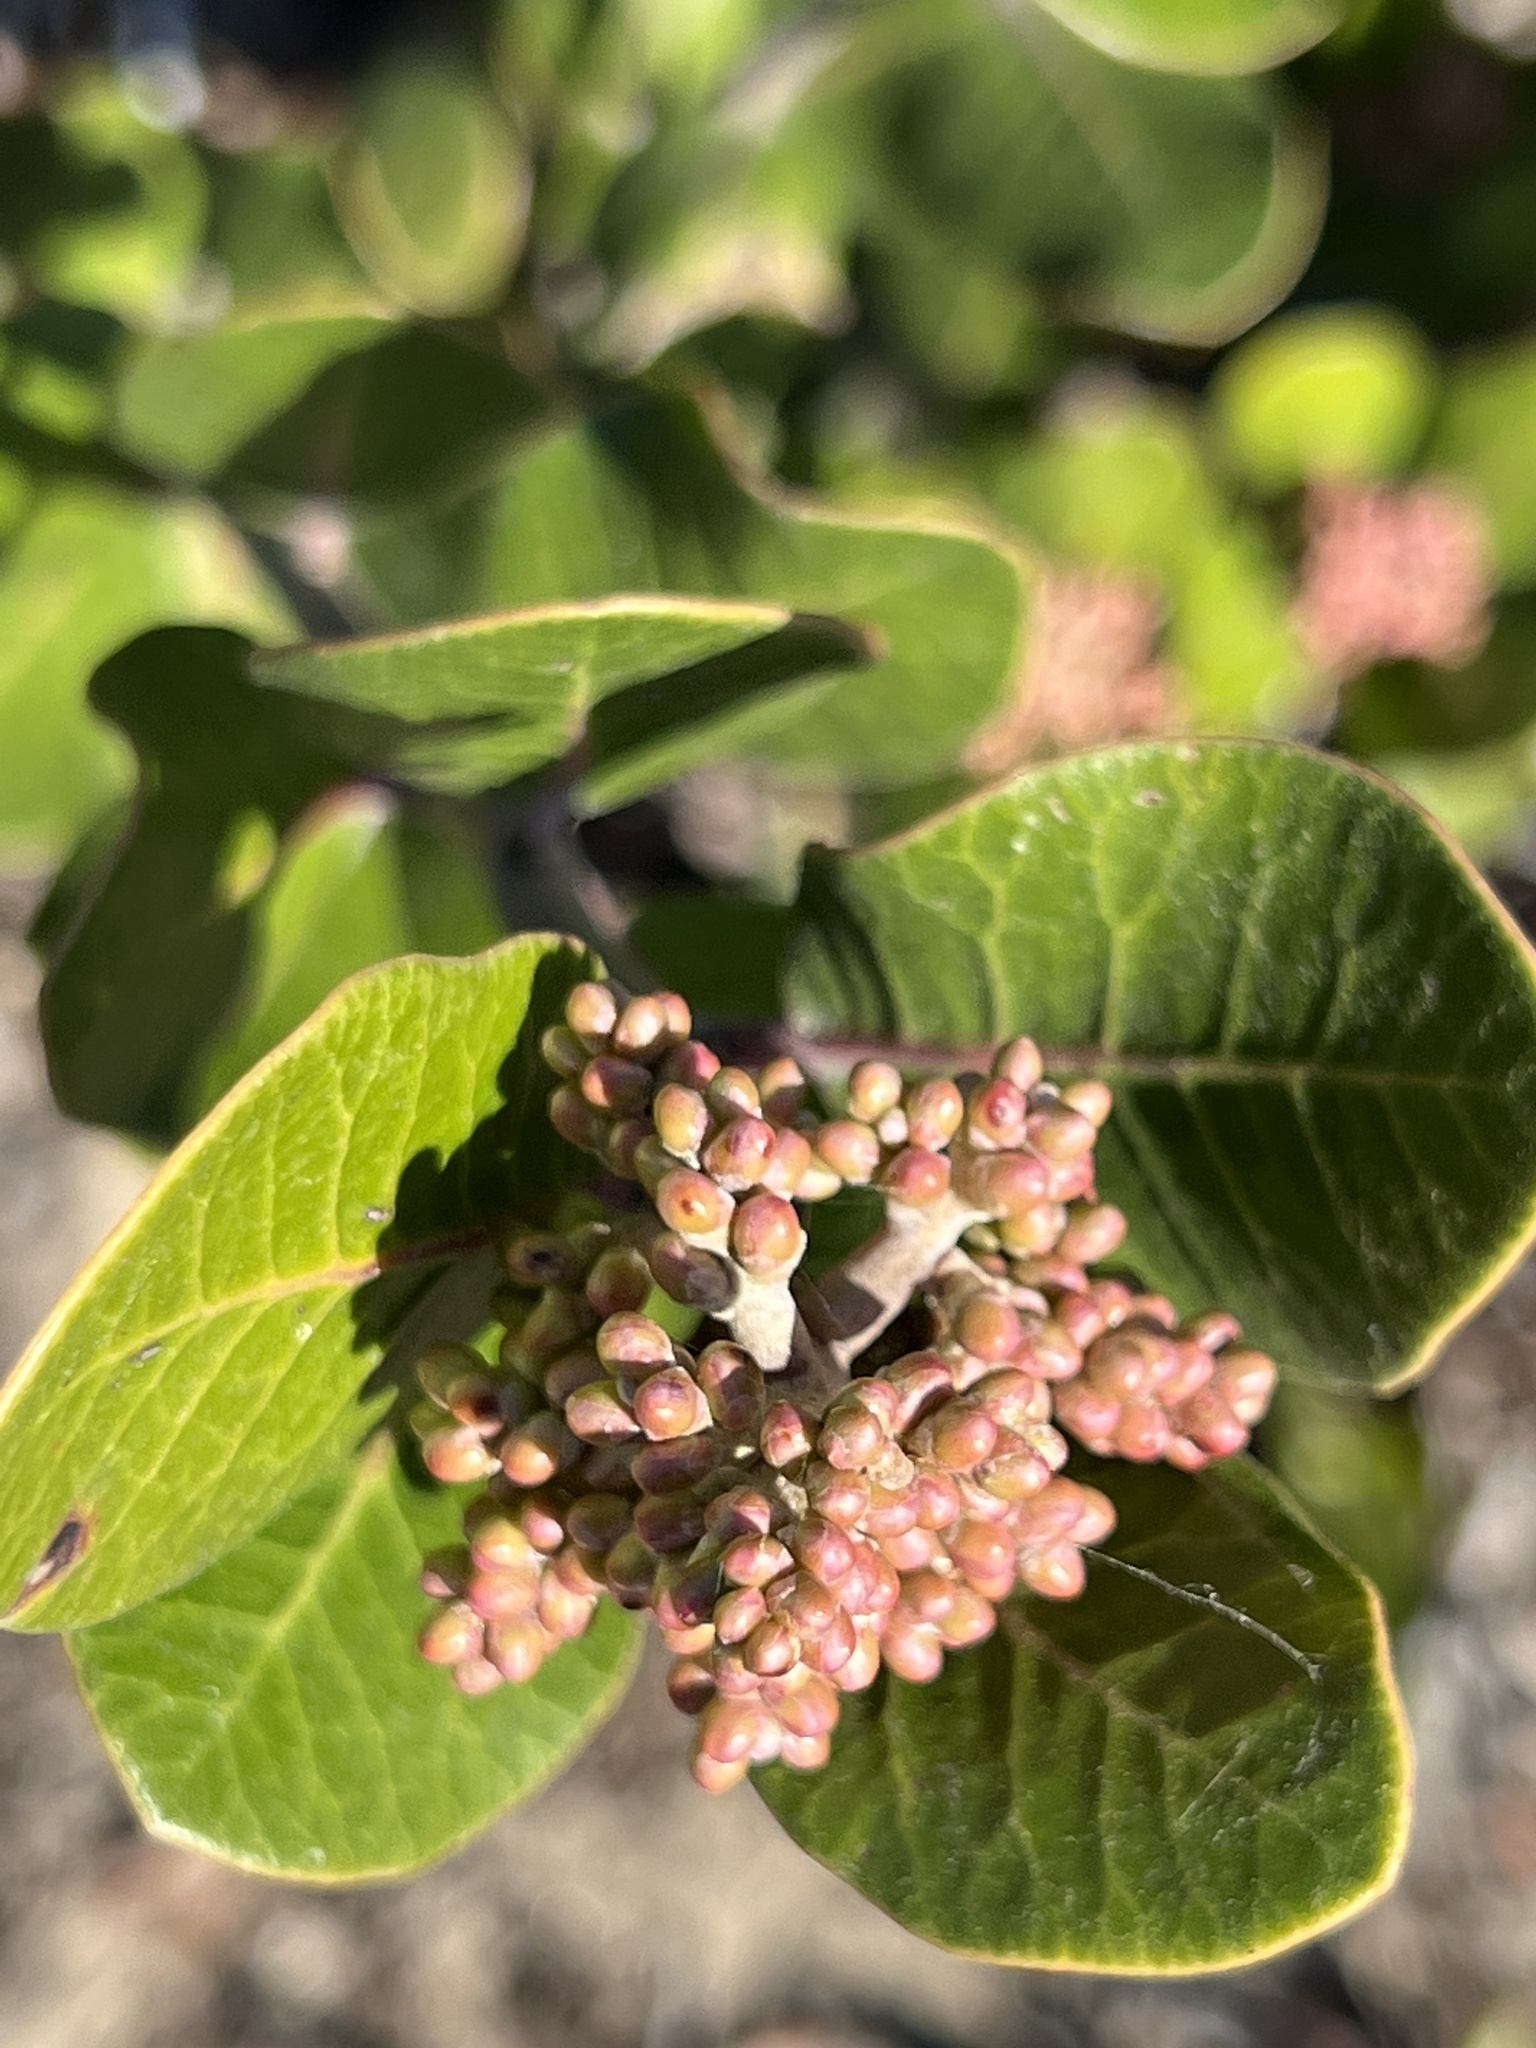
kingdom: Plantae
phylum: Tracheophyta
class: Magnoliopsida
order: Sapindales
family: Anacardiaceae
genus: Rhus
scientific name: Rhus integrifolia
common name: Lemonade sumac
